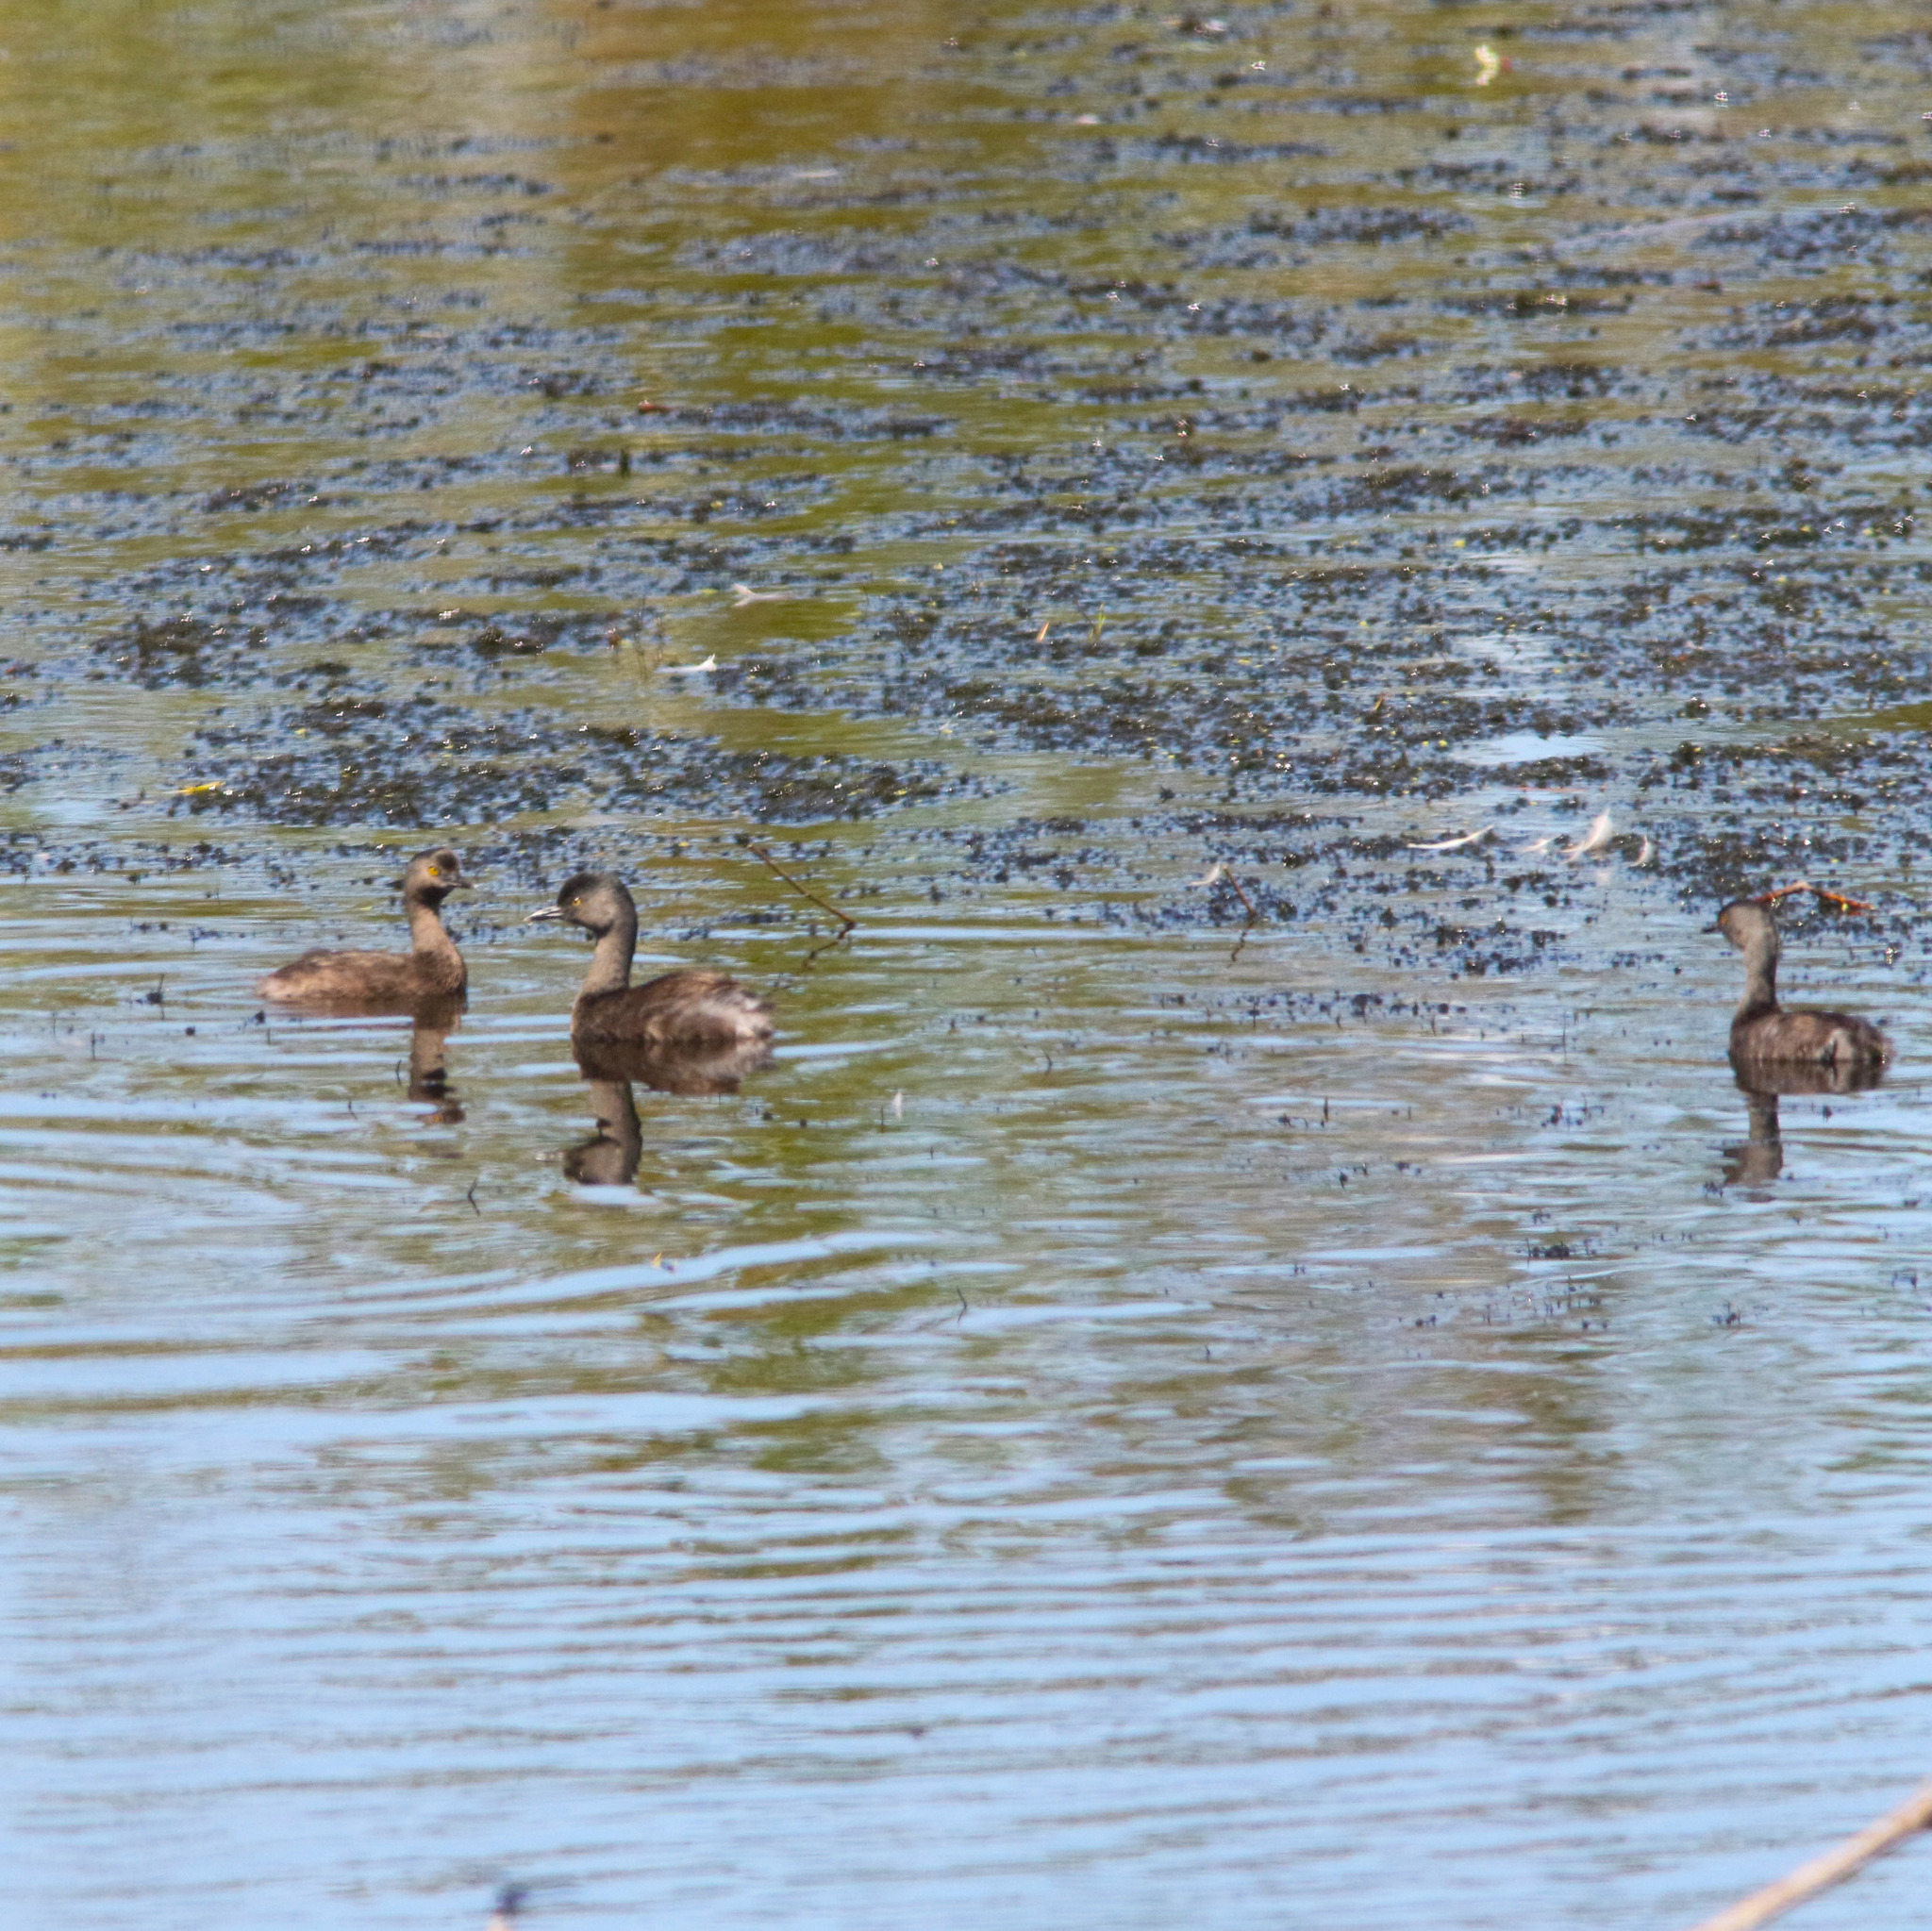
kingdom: Animalia
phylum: Chordata
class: Aves
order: Podicipediformes
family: Podicipedidae
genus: Tachybaptus
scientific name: Tachybaptus dominicus
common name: Least grebe
